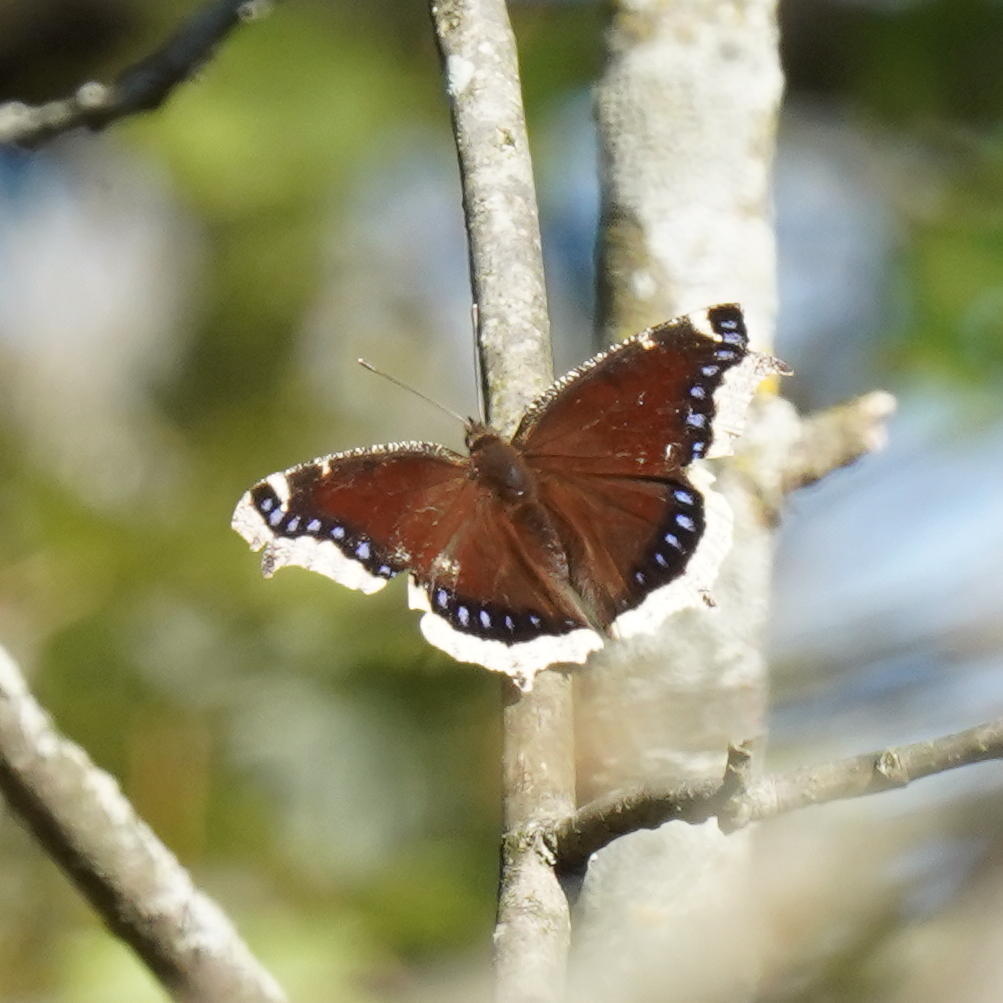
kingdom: Animalia
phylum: Arthropoda
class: Insecta
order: Lepidoptera
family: Nymphalidae
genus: Nymphalis
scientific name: Nymphalis antiopa
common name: Camberwell beauty
